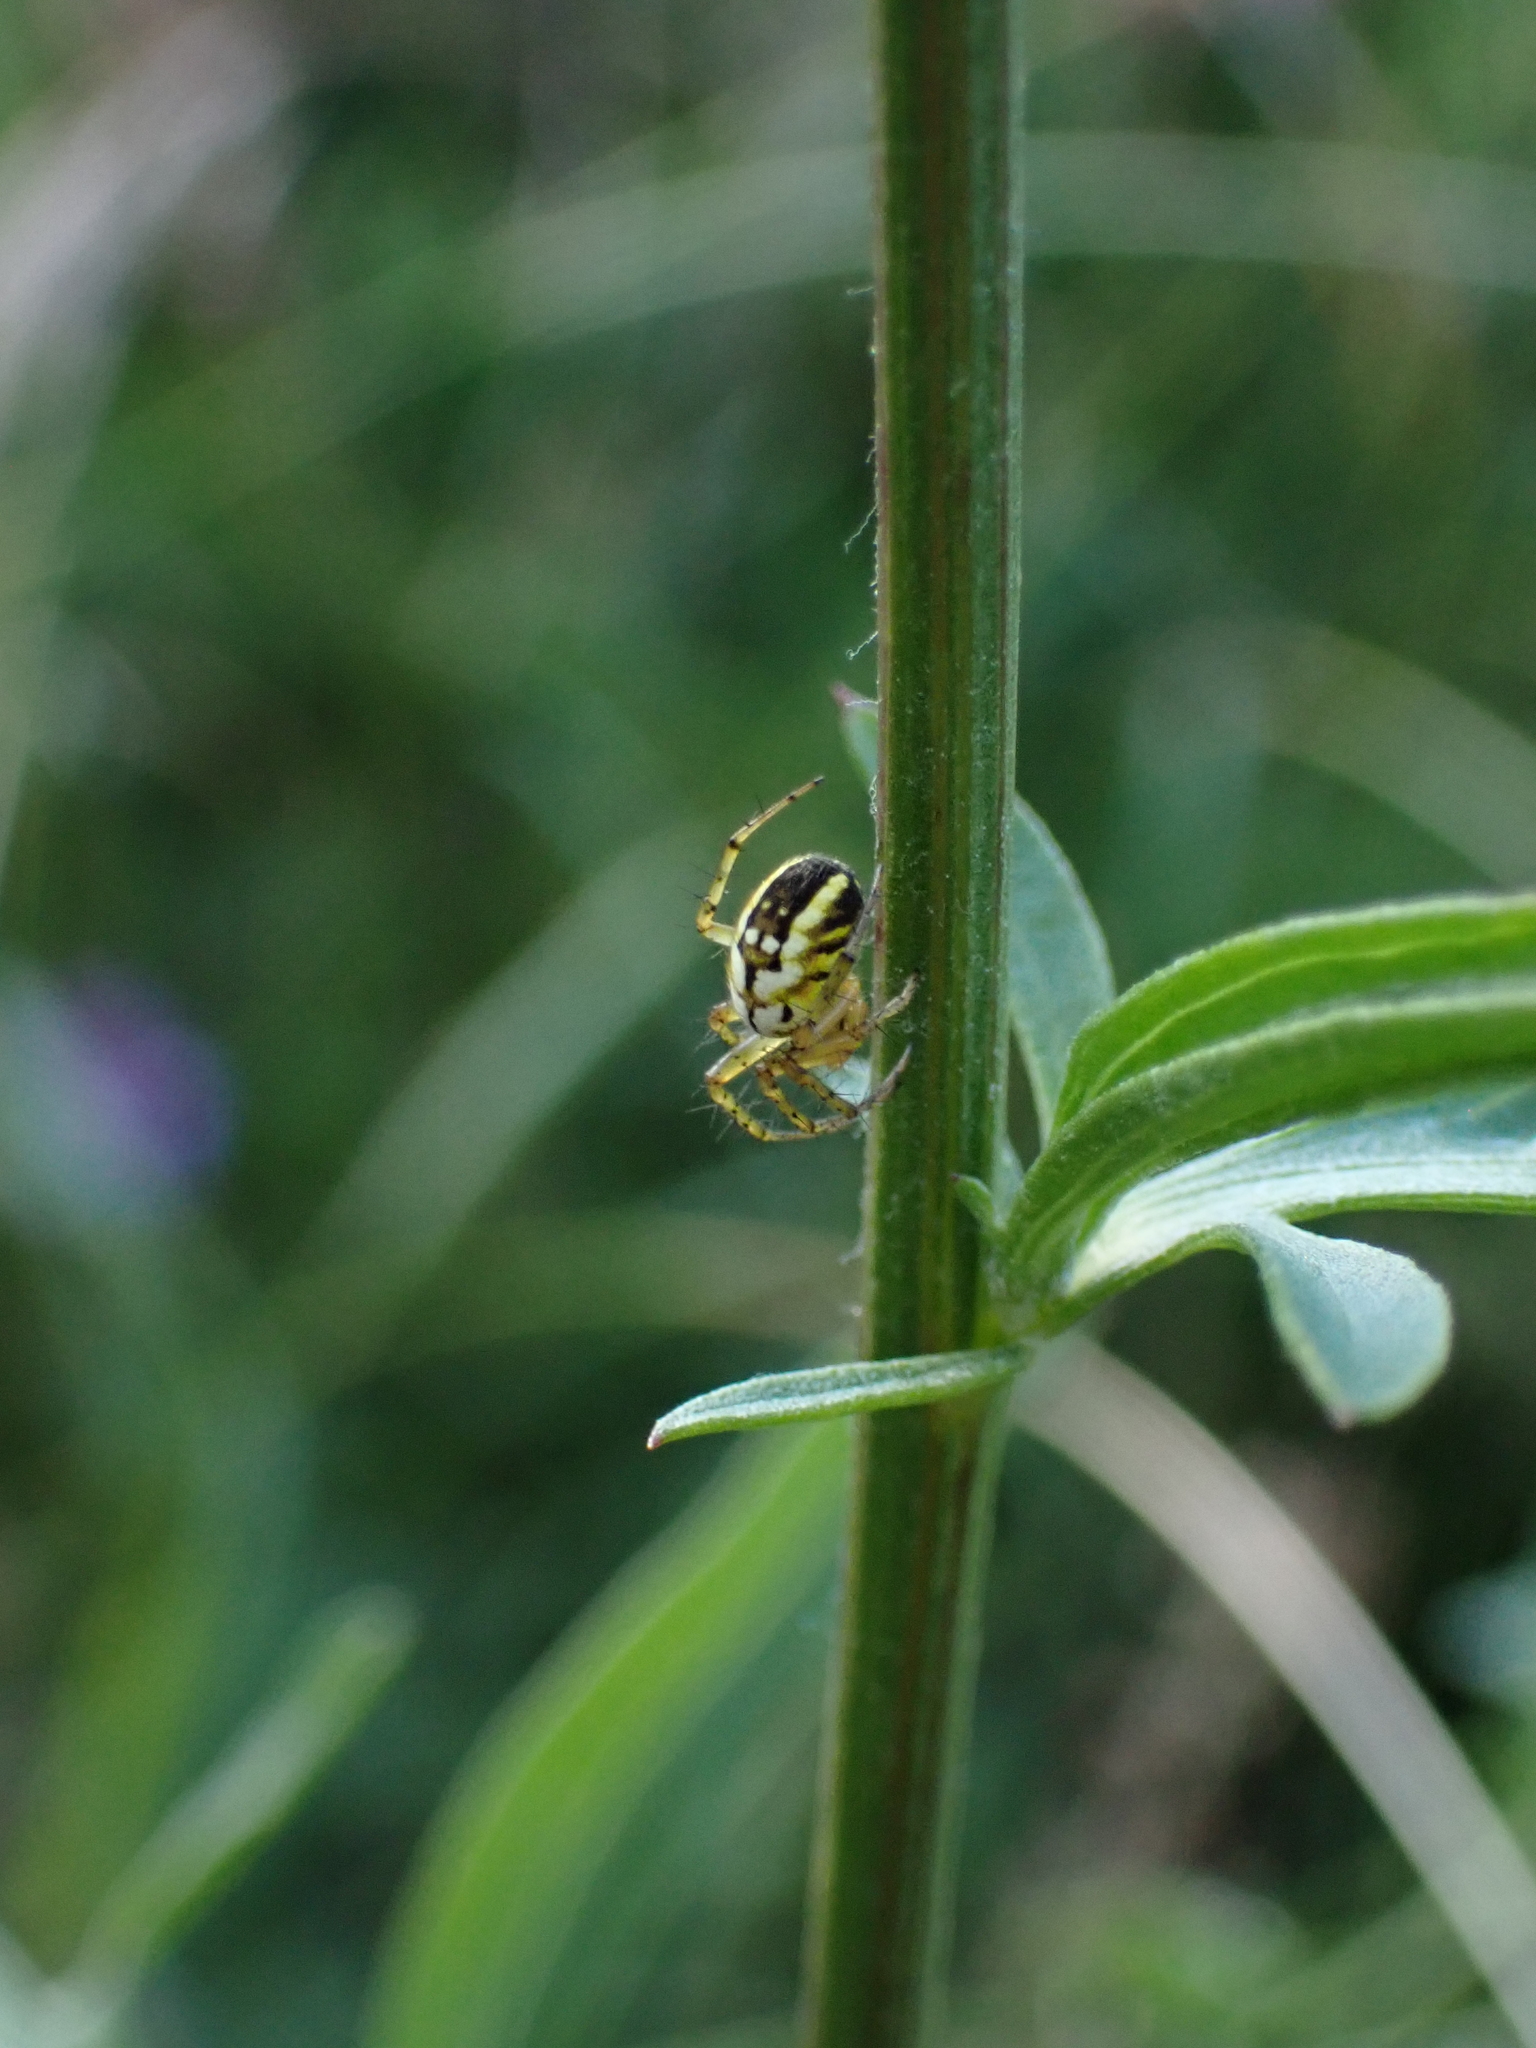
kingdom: Animalia
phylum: Arthropoda
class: Arachnida
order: Araneae
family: Araneidae
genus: Mangora
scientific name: Mangora acalypha
